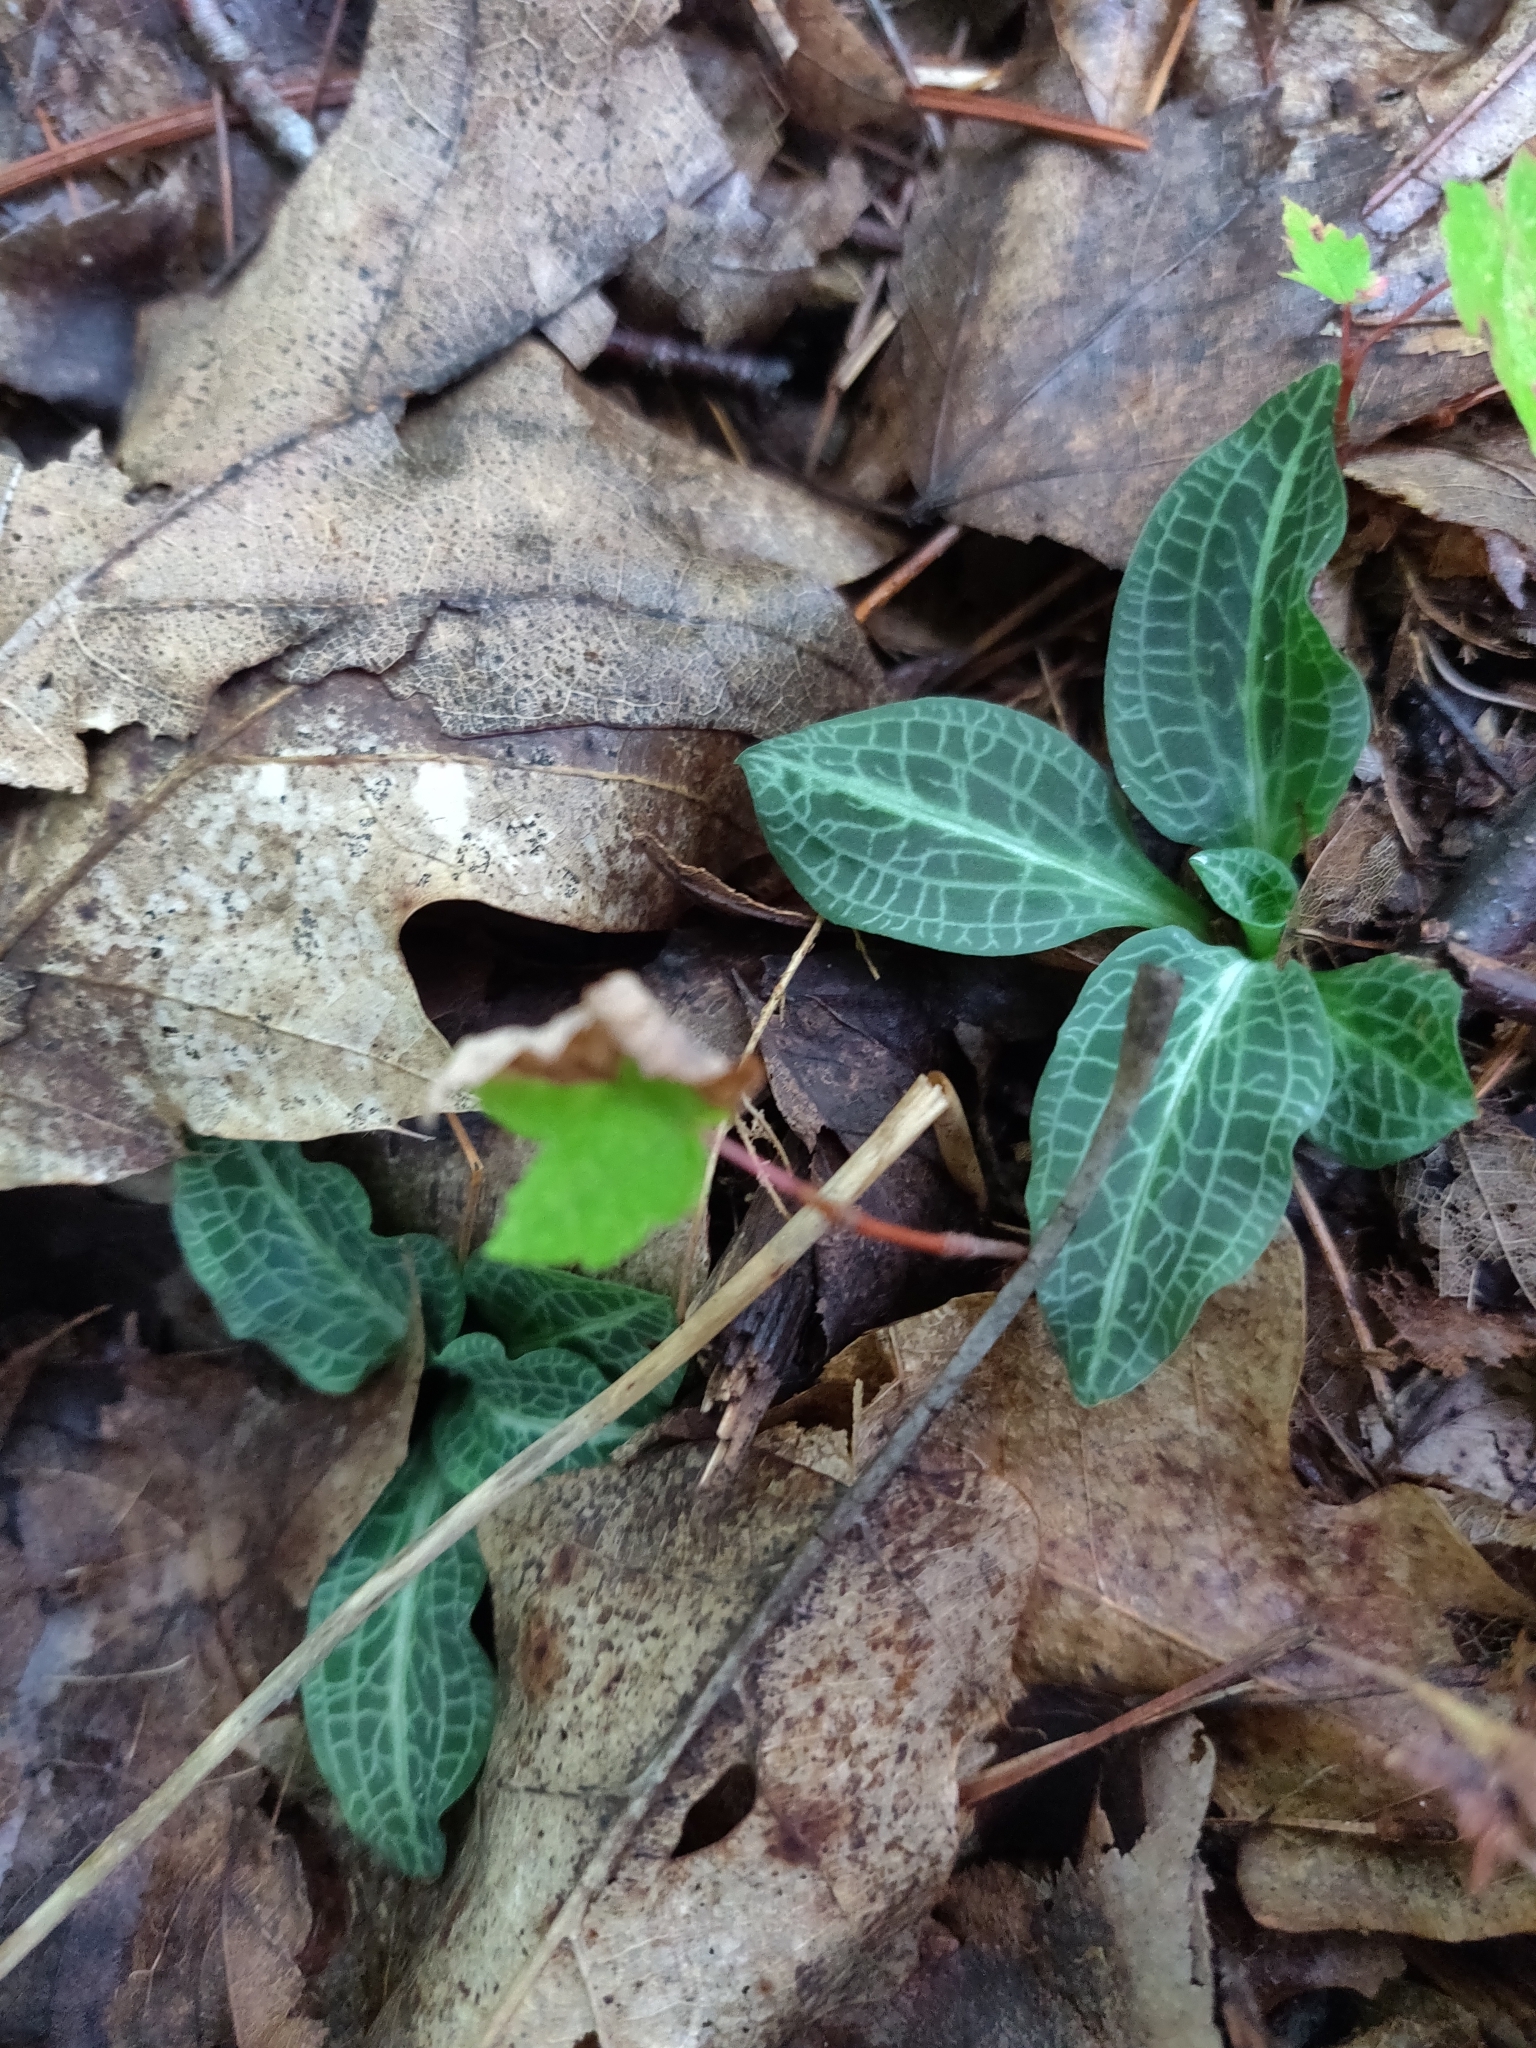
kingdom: Plantae
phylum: Tracheophyta
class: Liliopsida
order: Asparagales
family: Orchidaceae
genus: Goodyera
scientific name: Goodyera pubescens
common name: Downy rattlesnake-plantain
